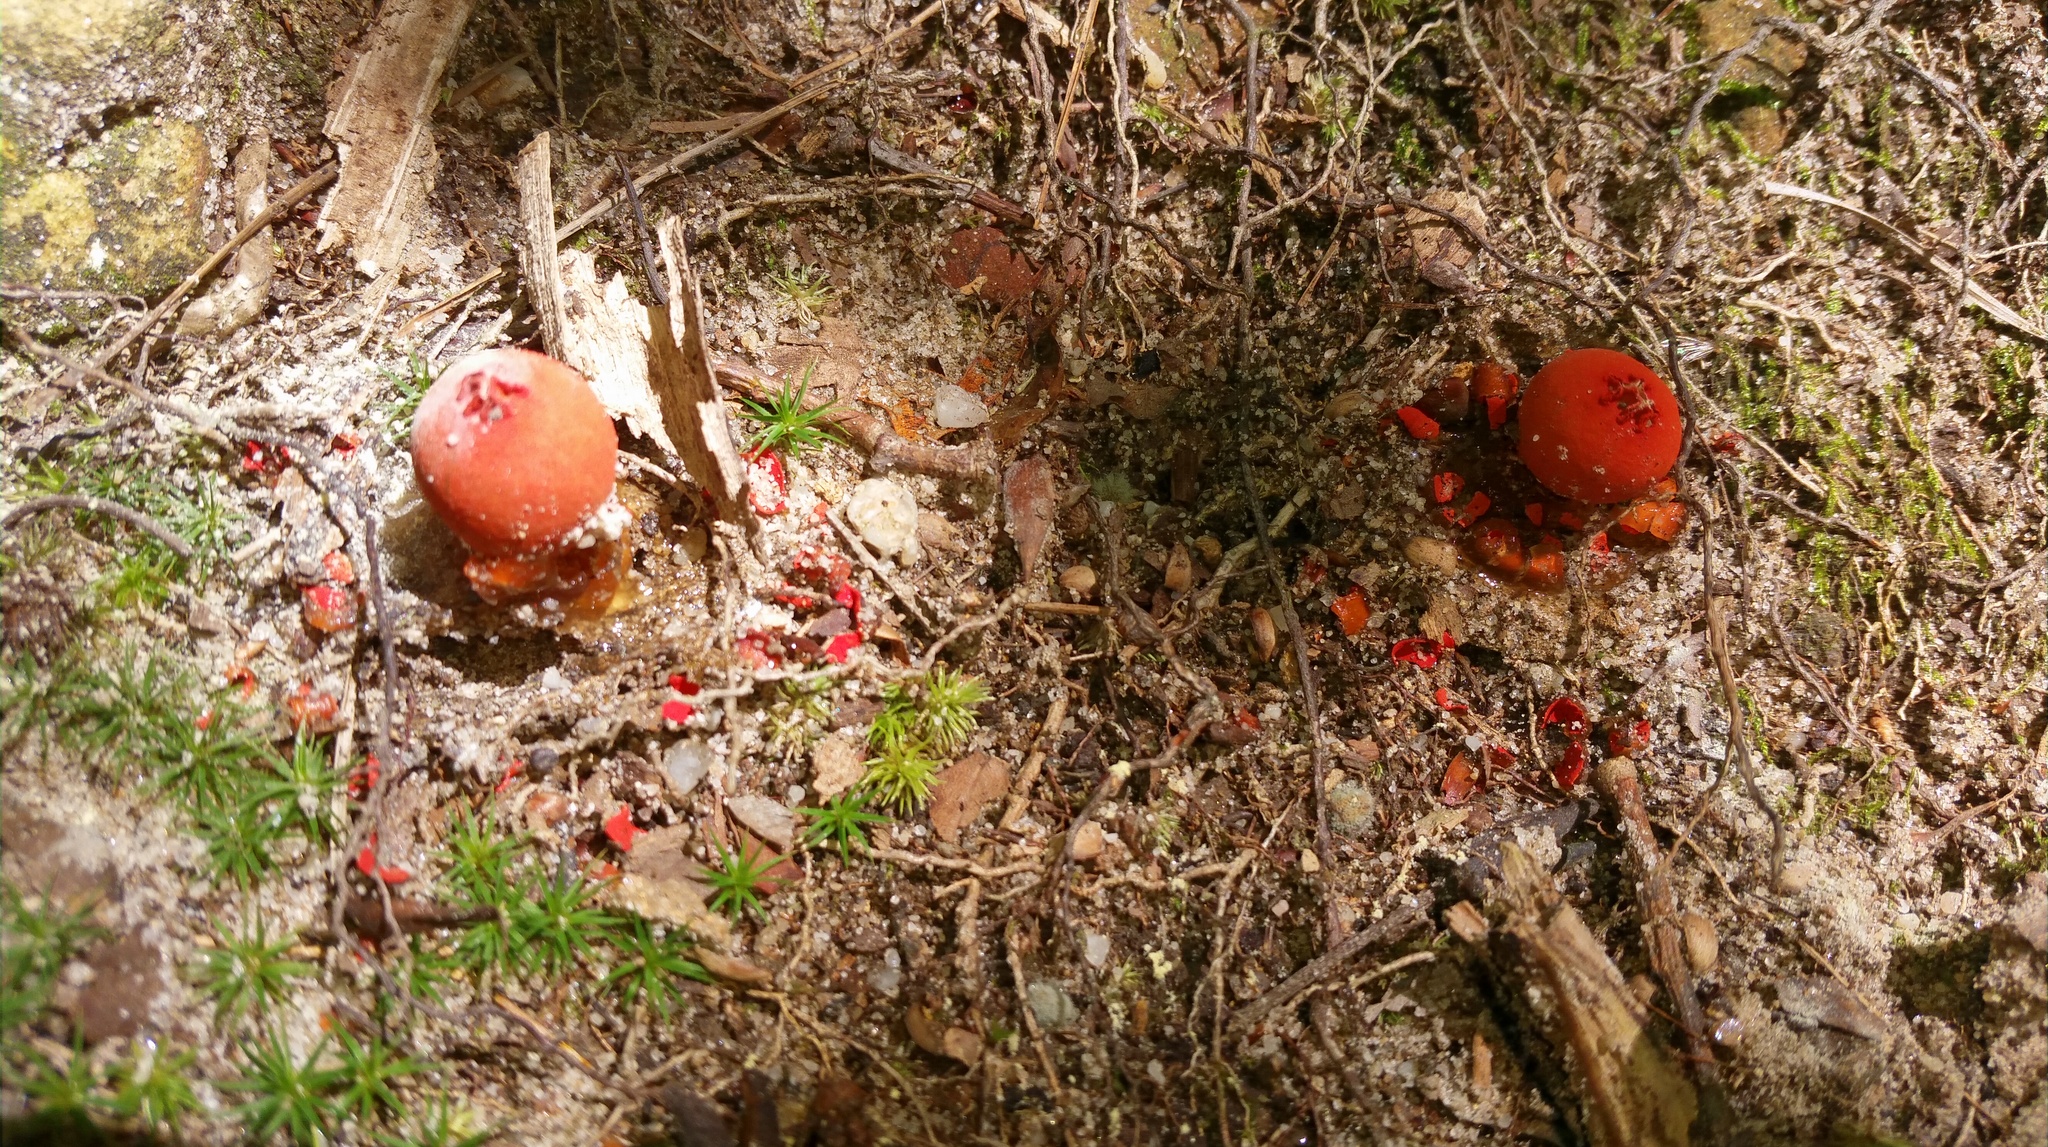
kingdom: Fungi
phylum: Basidiomycota
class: Agaricomycetes
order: Boletales
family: Calostomataceae
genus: Calostoma
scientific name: Calostoma cinnabarinum
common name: Stalked puffball-in-aspic
